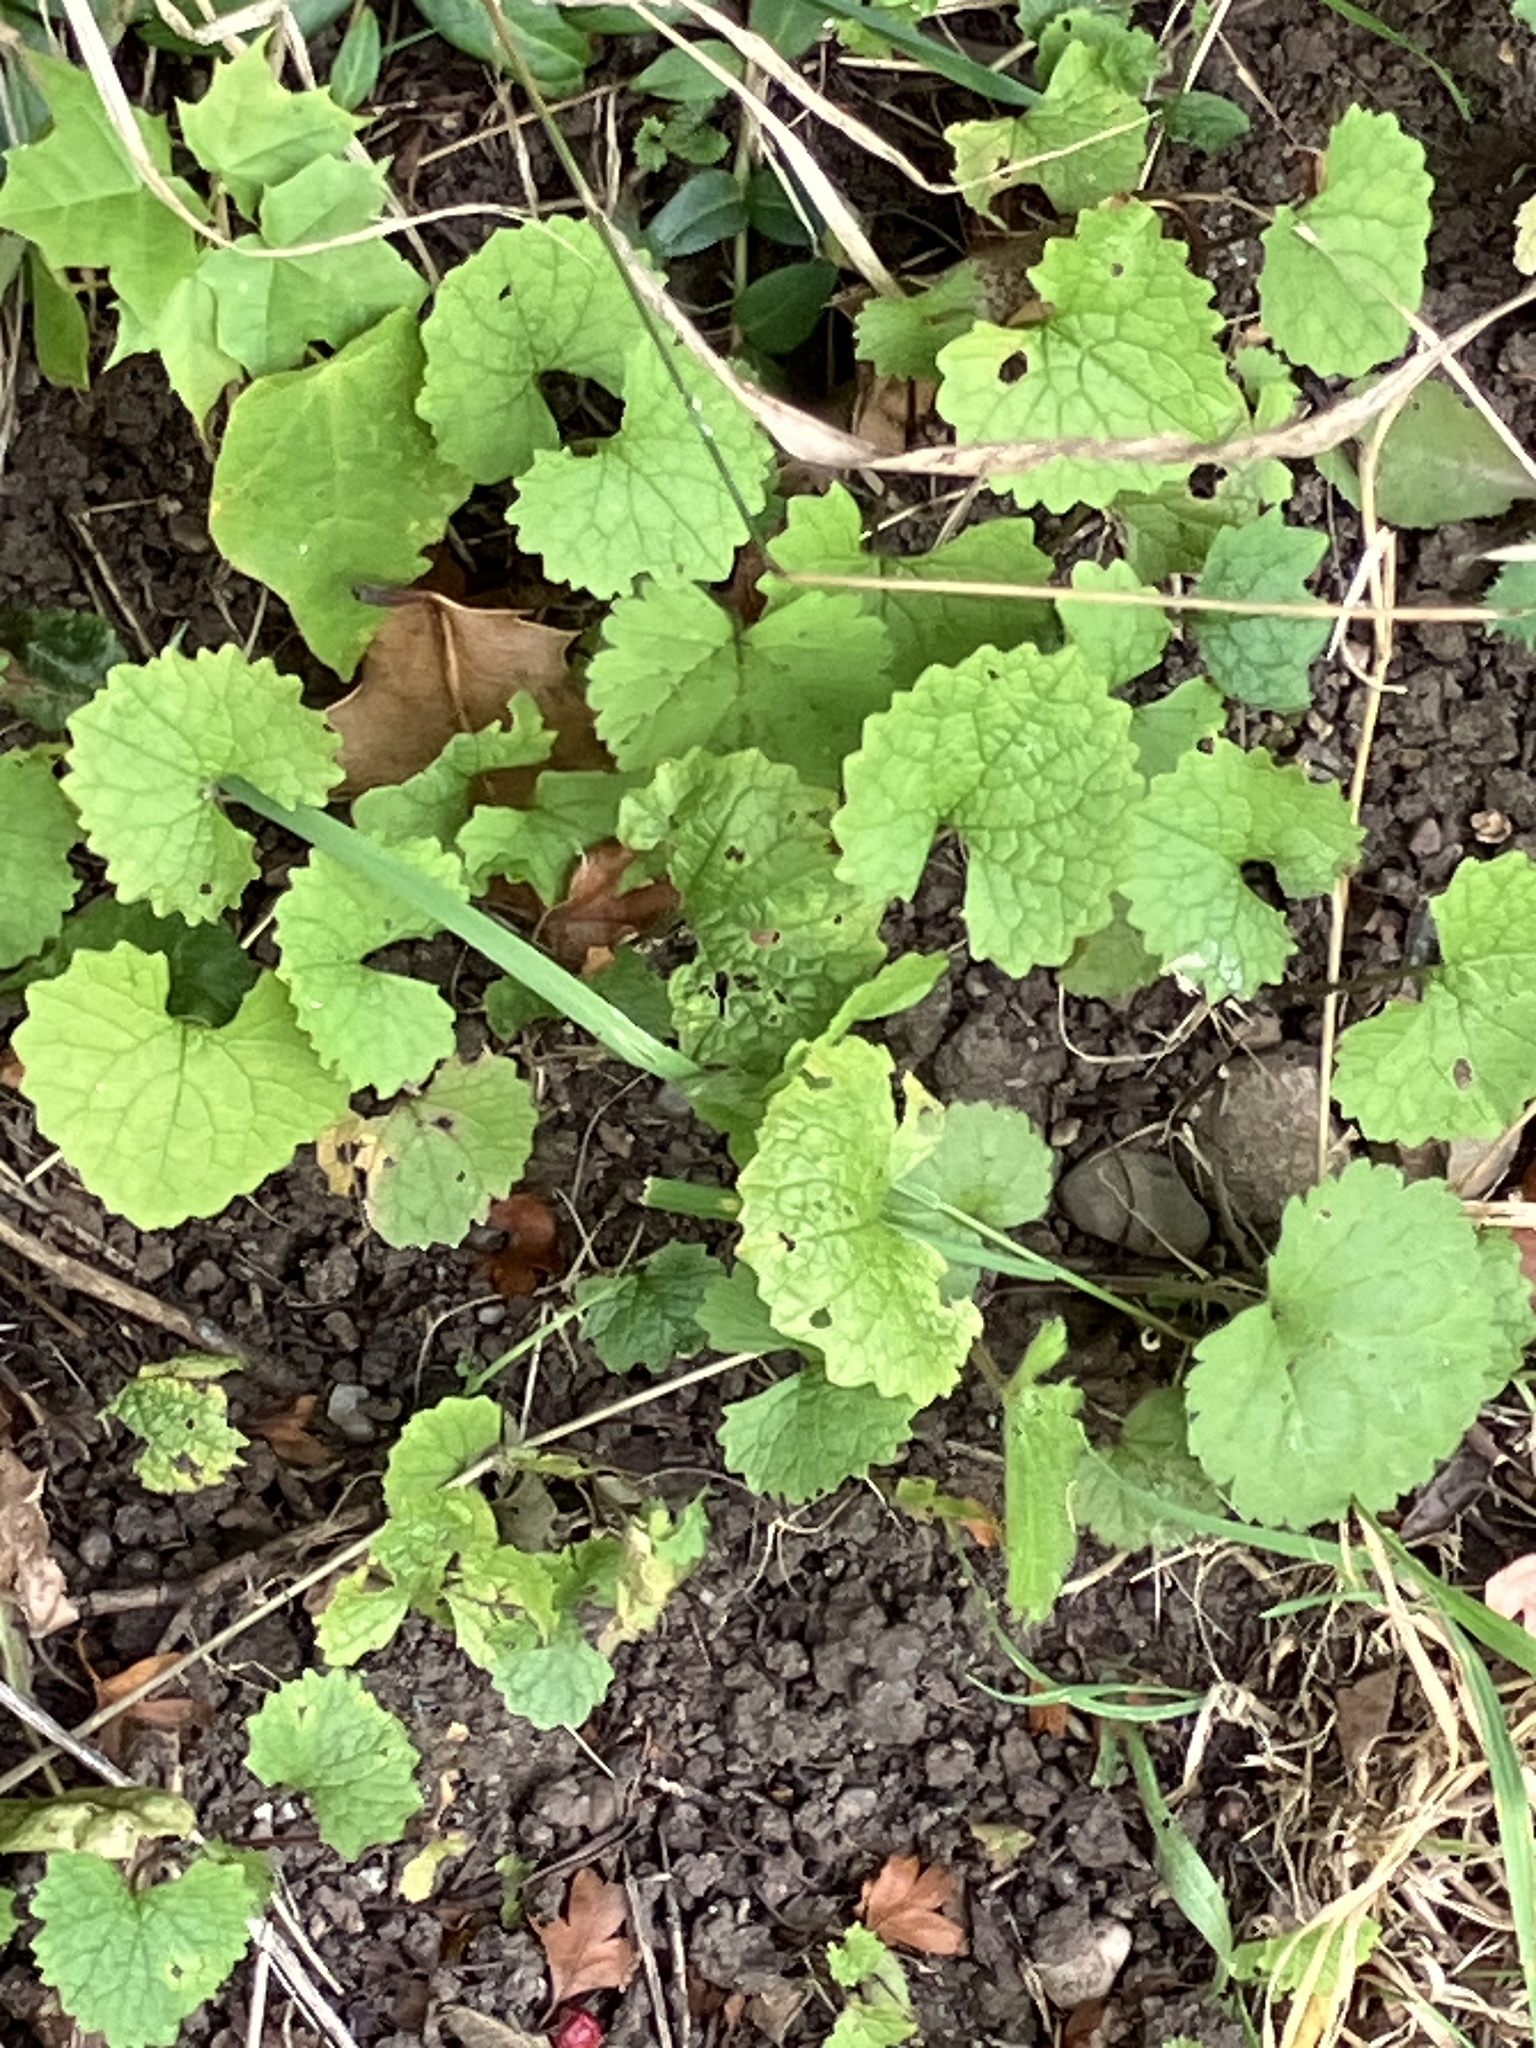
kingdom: Plantae
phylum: Tracheophyta
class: Magnoliopsida
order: Brassicales
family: Brassicaceae
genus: Alliaria
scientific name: Alliaria petiolata
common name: Garlic mustard
